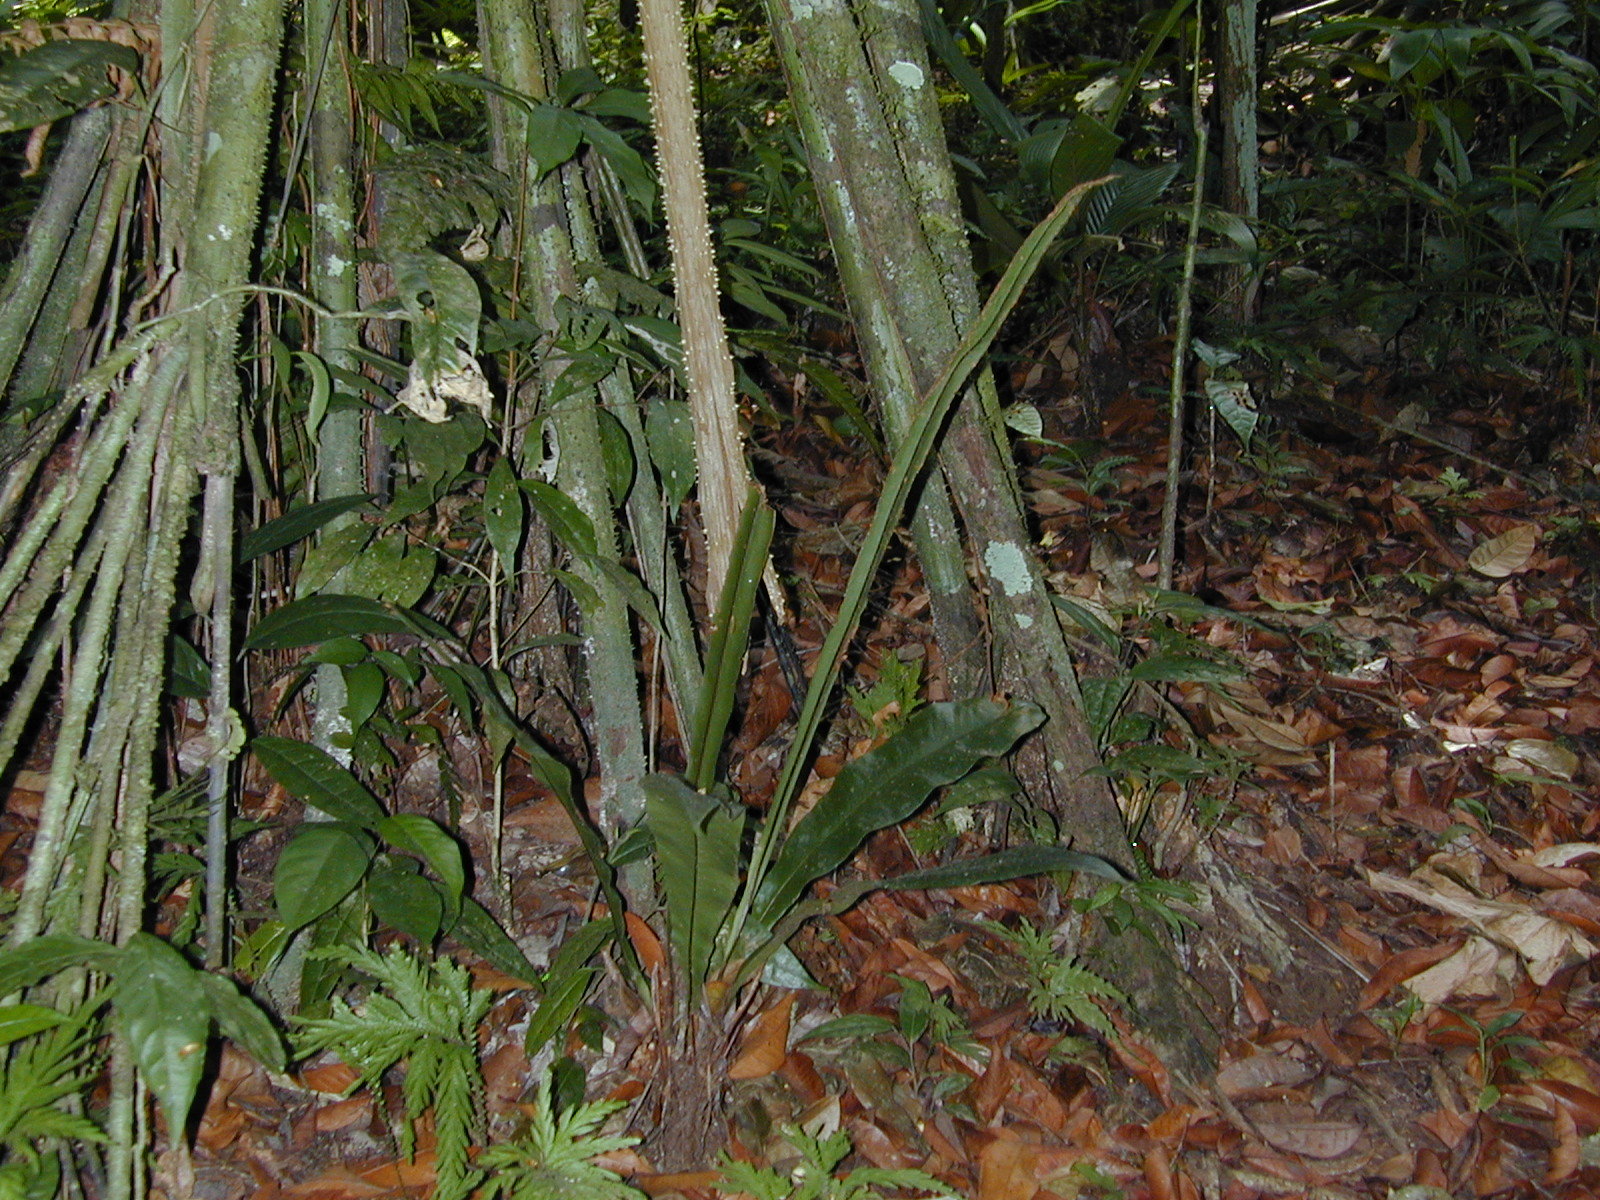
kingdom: Plantae
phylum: Tracheophyta
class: Polypodiopsida
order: Polypodiales
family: Tectariaceae
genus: Tectaria
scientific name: Tectaria panamensis
